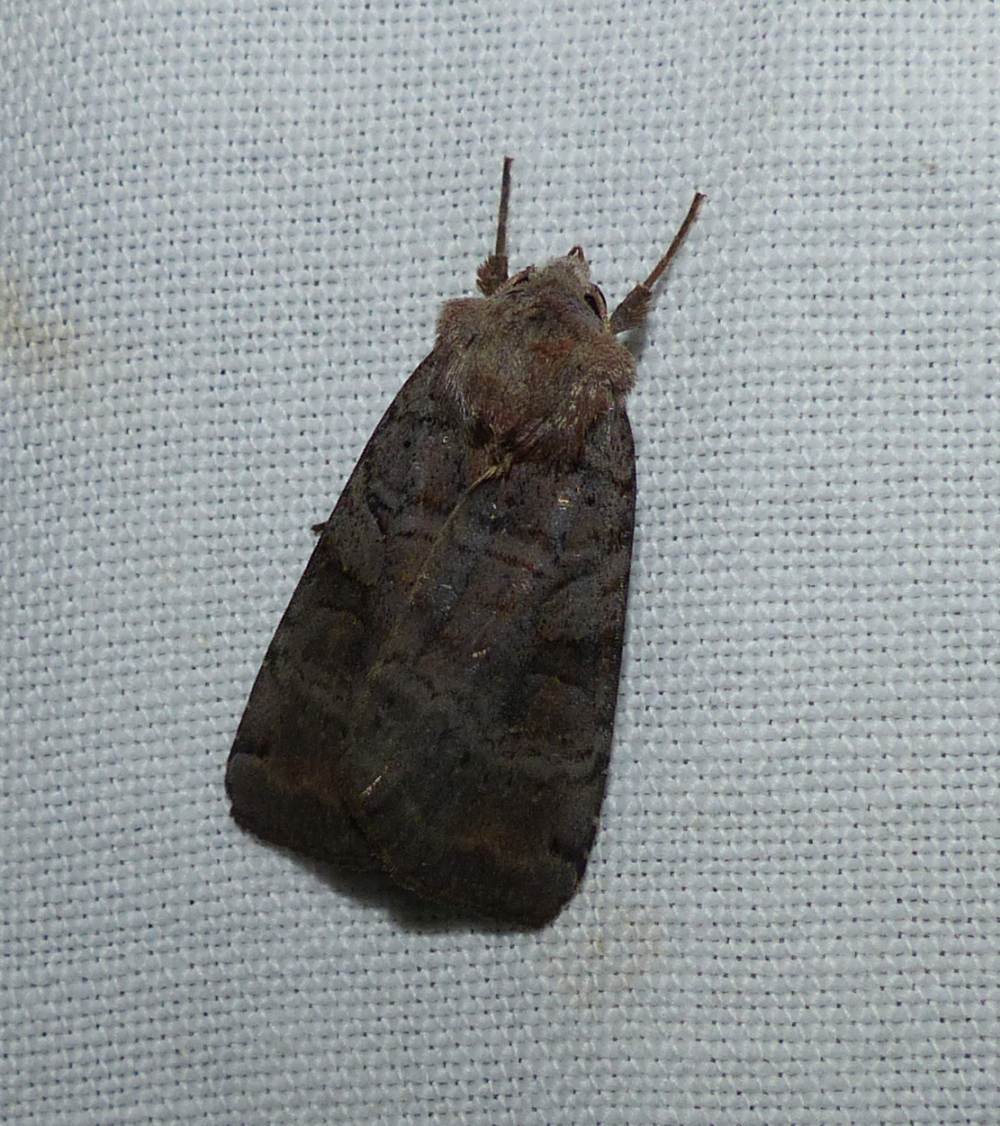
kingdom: Animalia
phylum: Arthropoda
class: Insecta
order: Lepidoptera
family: Noctuidae
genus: Xestia
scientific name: Xestia smithii
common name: Smith's dart
